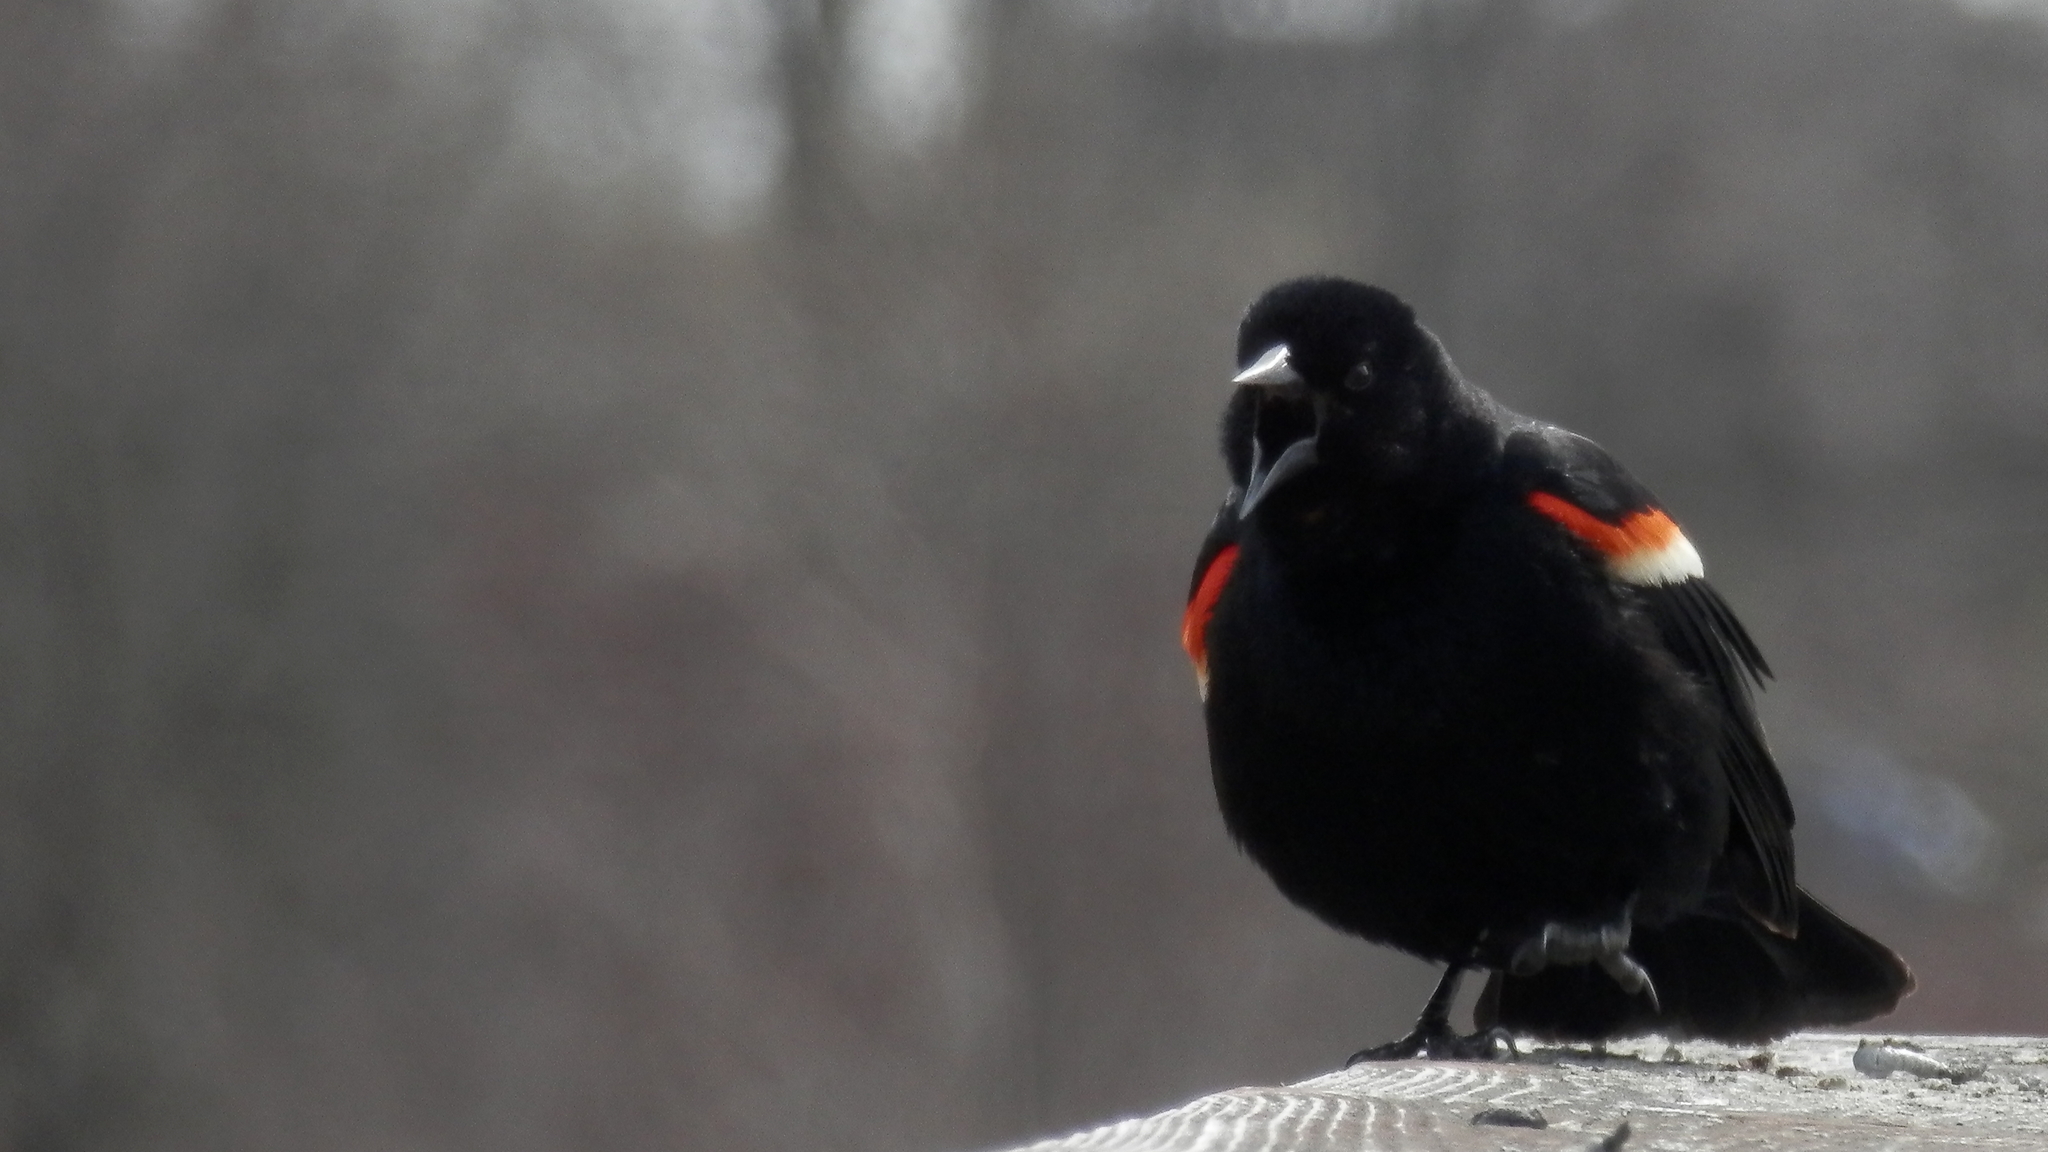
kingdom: Animalia
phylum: Chordata
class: Aves
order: Passeriformes
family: Icteridae
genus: Agelaius
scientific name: Agelaius phoeniceus
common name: Red-winged blackbird
